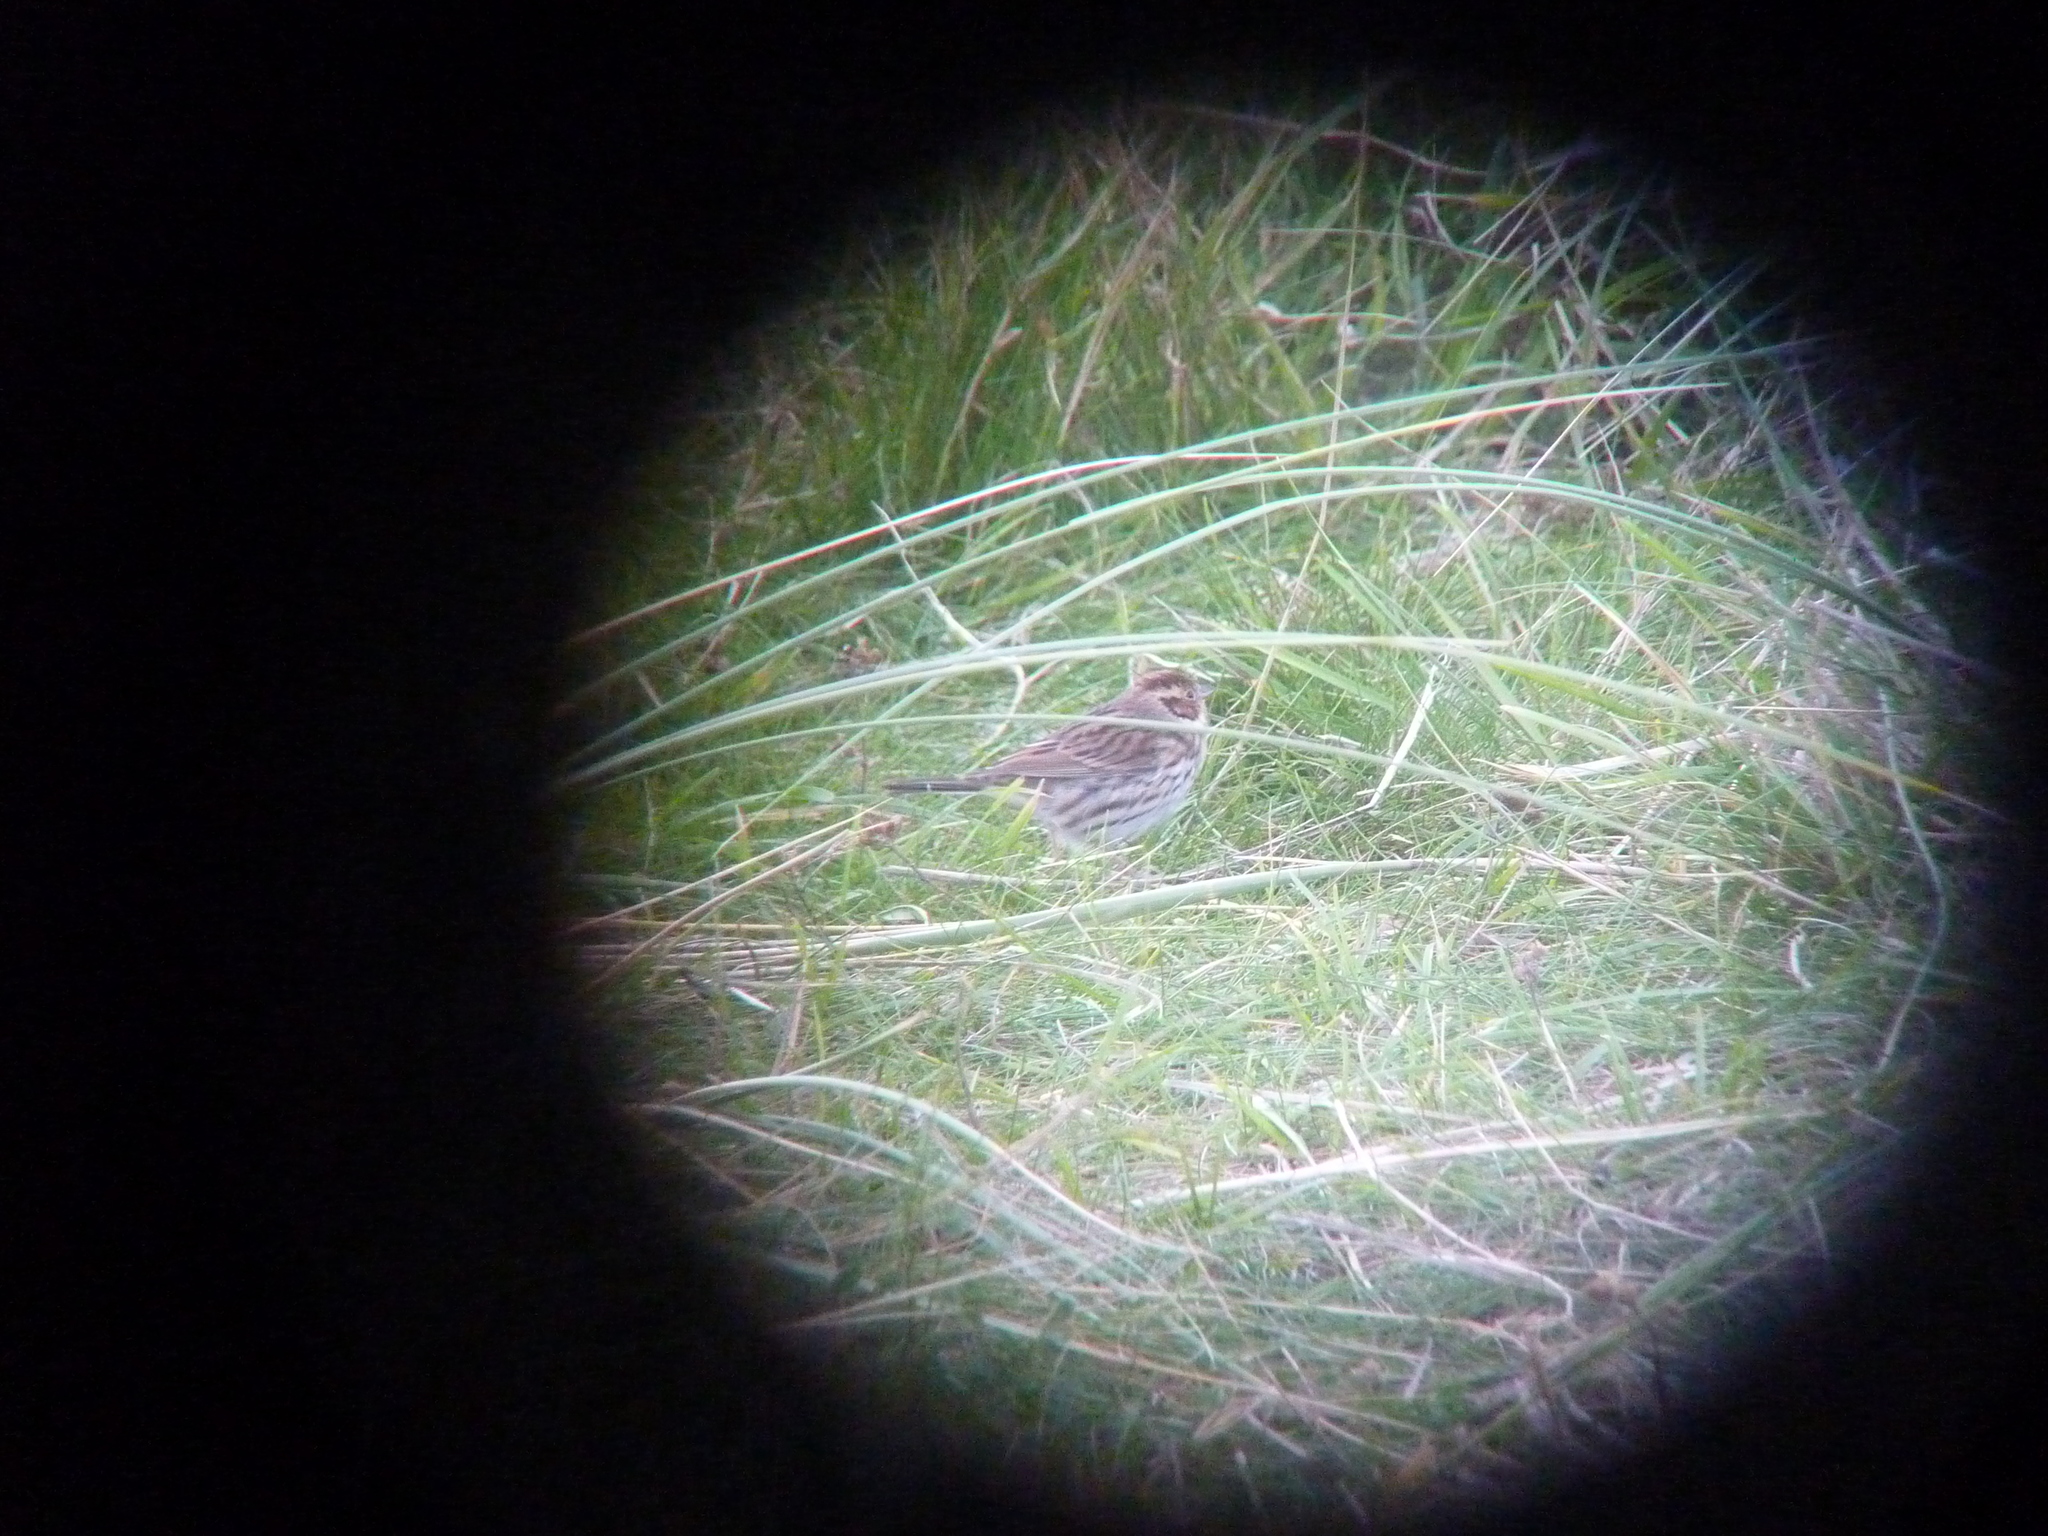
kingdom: Animalia
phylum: Chordata
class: Aves
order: Passeriformes
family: Emberizidae
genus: Emberiza
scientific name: Emberiza pusilla
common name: Little bunting
